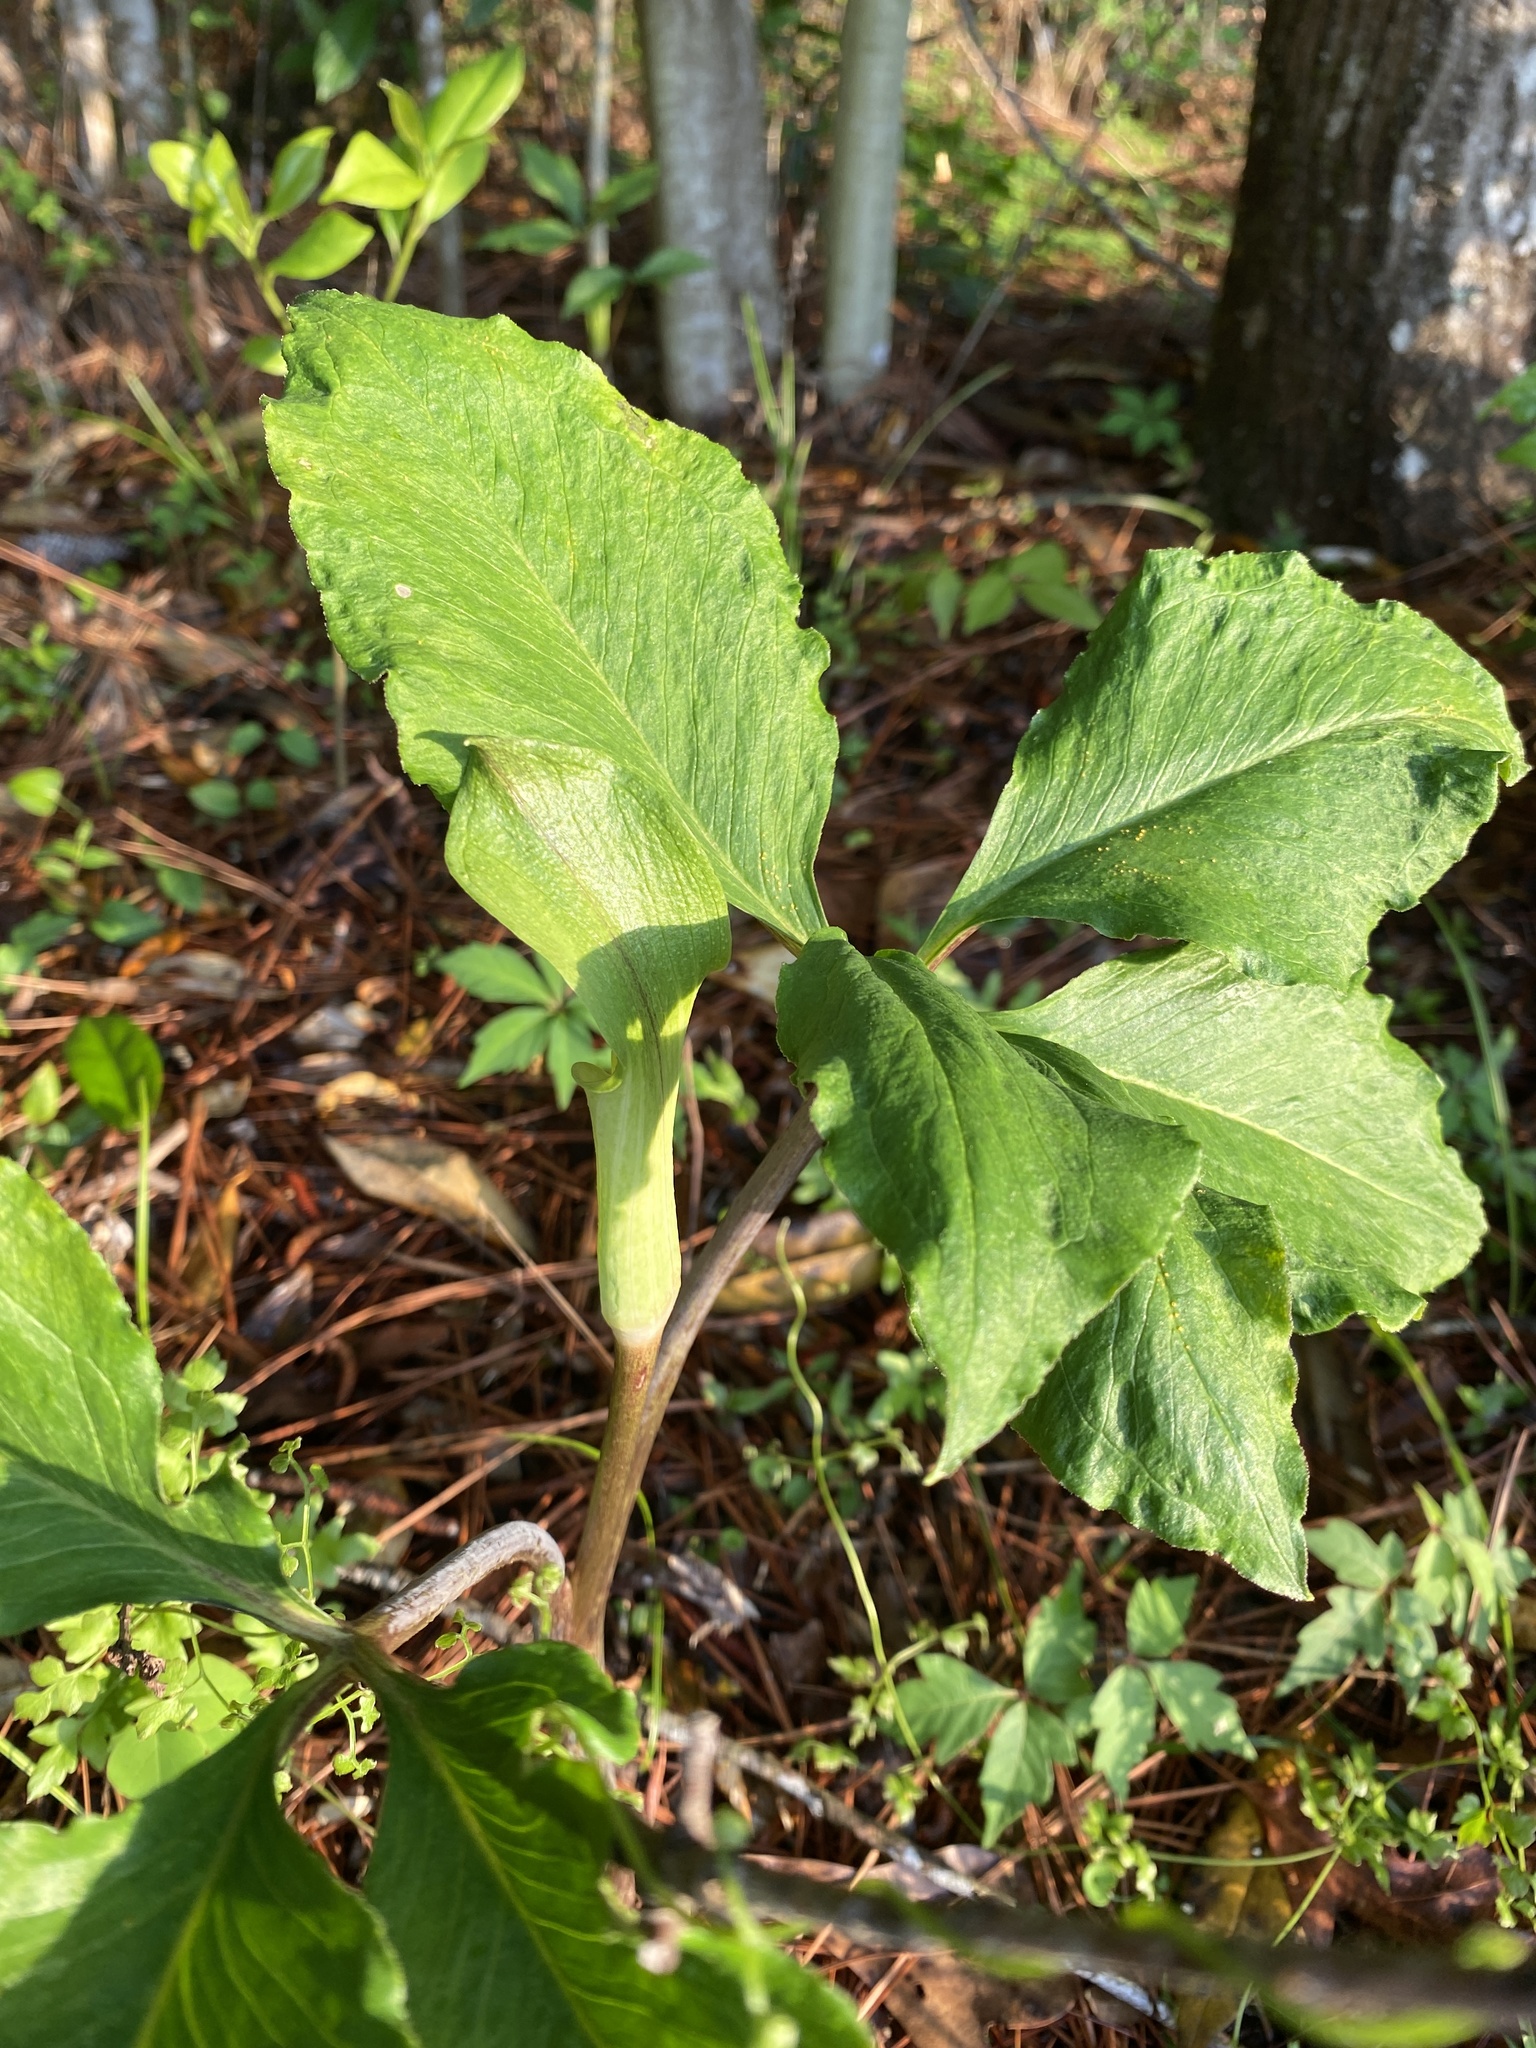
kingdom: Plantae
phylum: Tracheophyta
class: Liliopsida
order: Alismatales
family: Araceae
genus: Arisaema
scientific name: Arisaema quinatum
